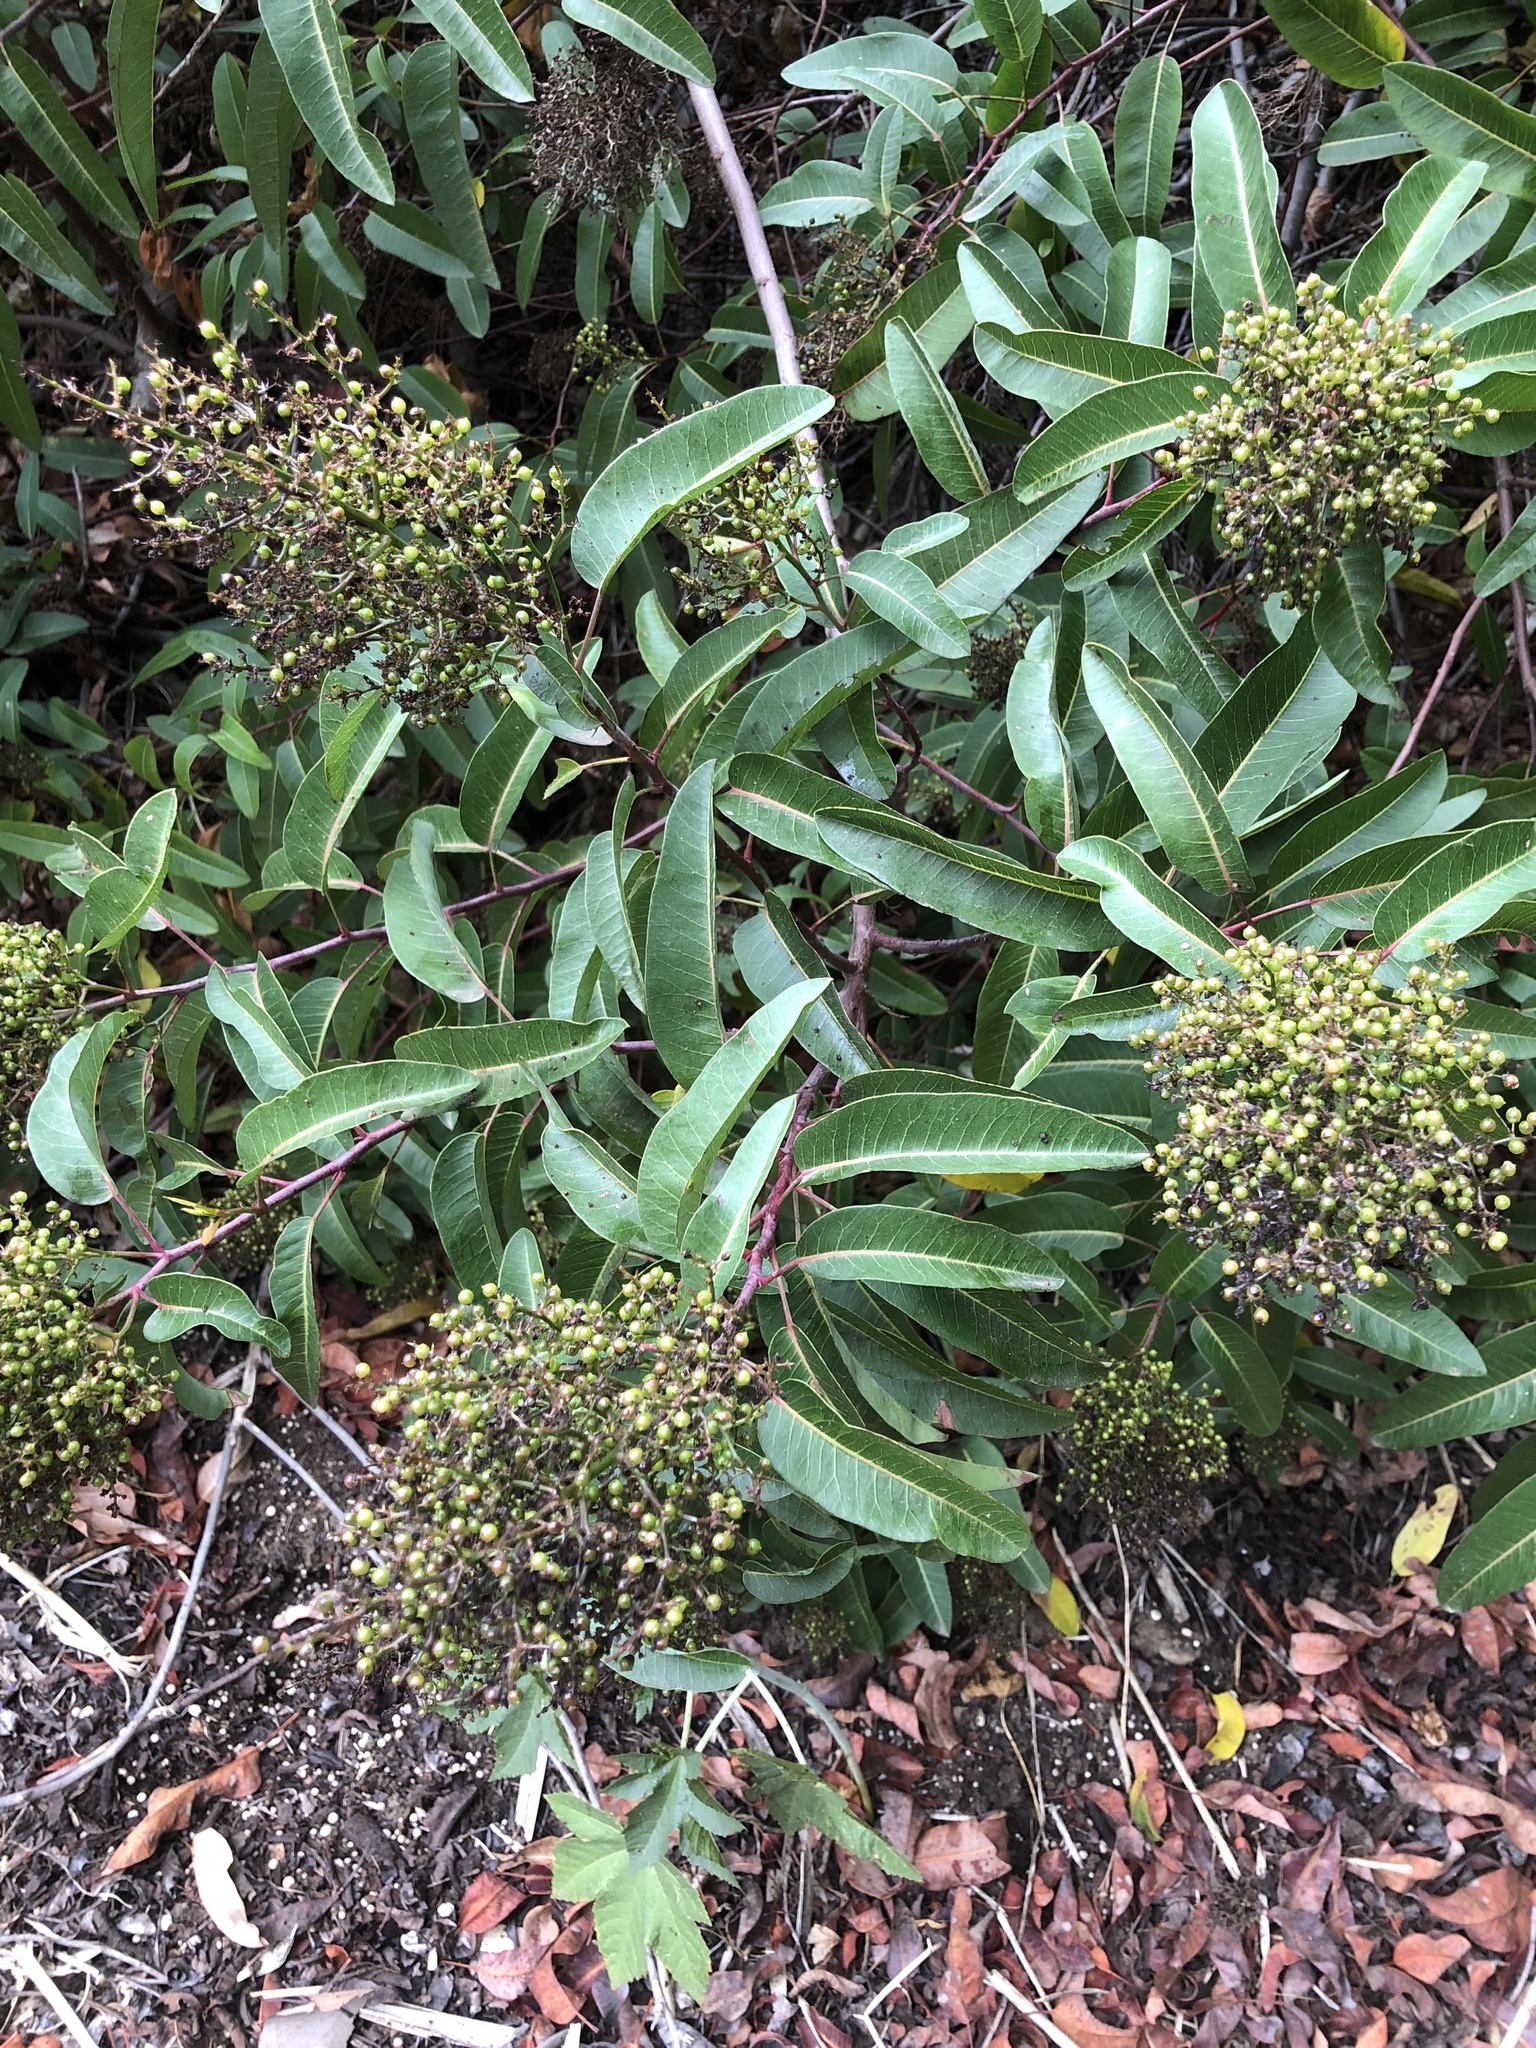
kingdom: Plantae
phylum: Tracheophyta
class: Magnoliopsida
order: Sapindales
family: Anacardiaceae
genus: Malosma
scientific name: Malosma laurina
